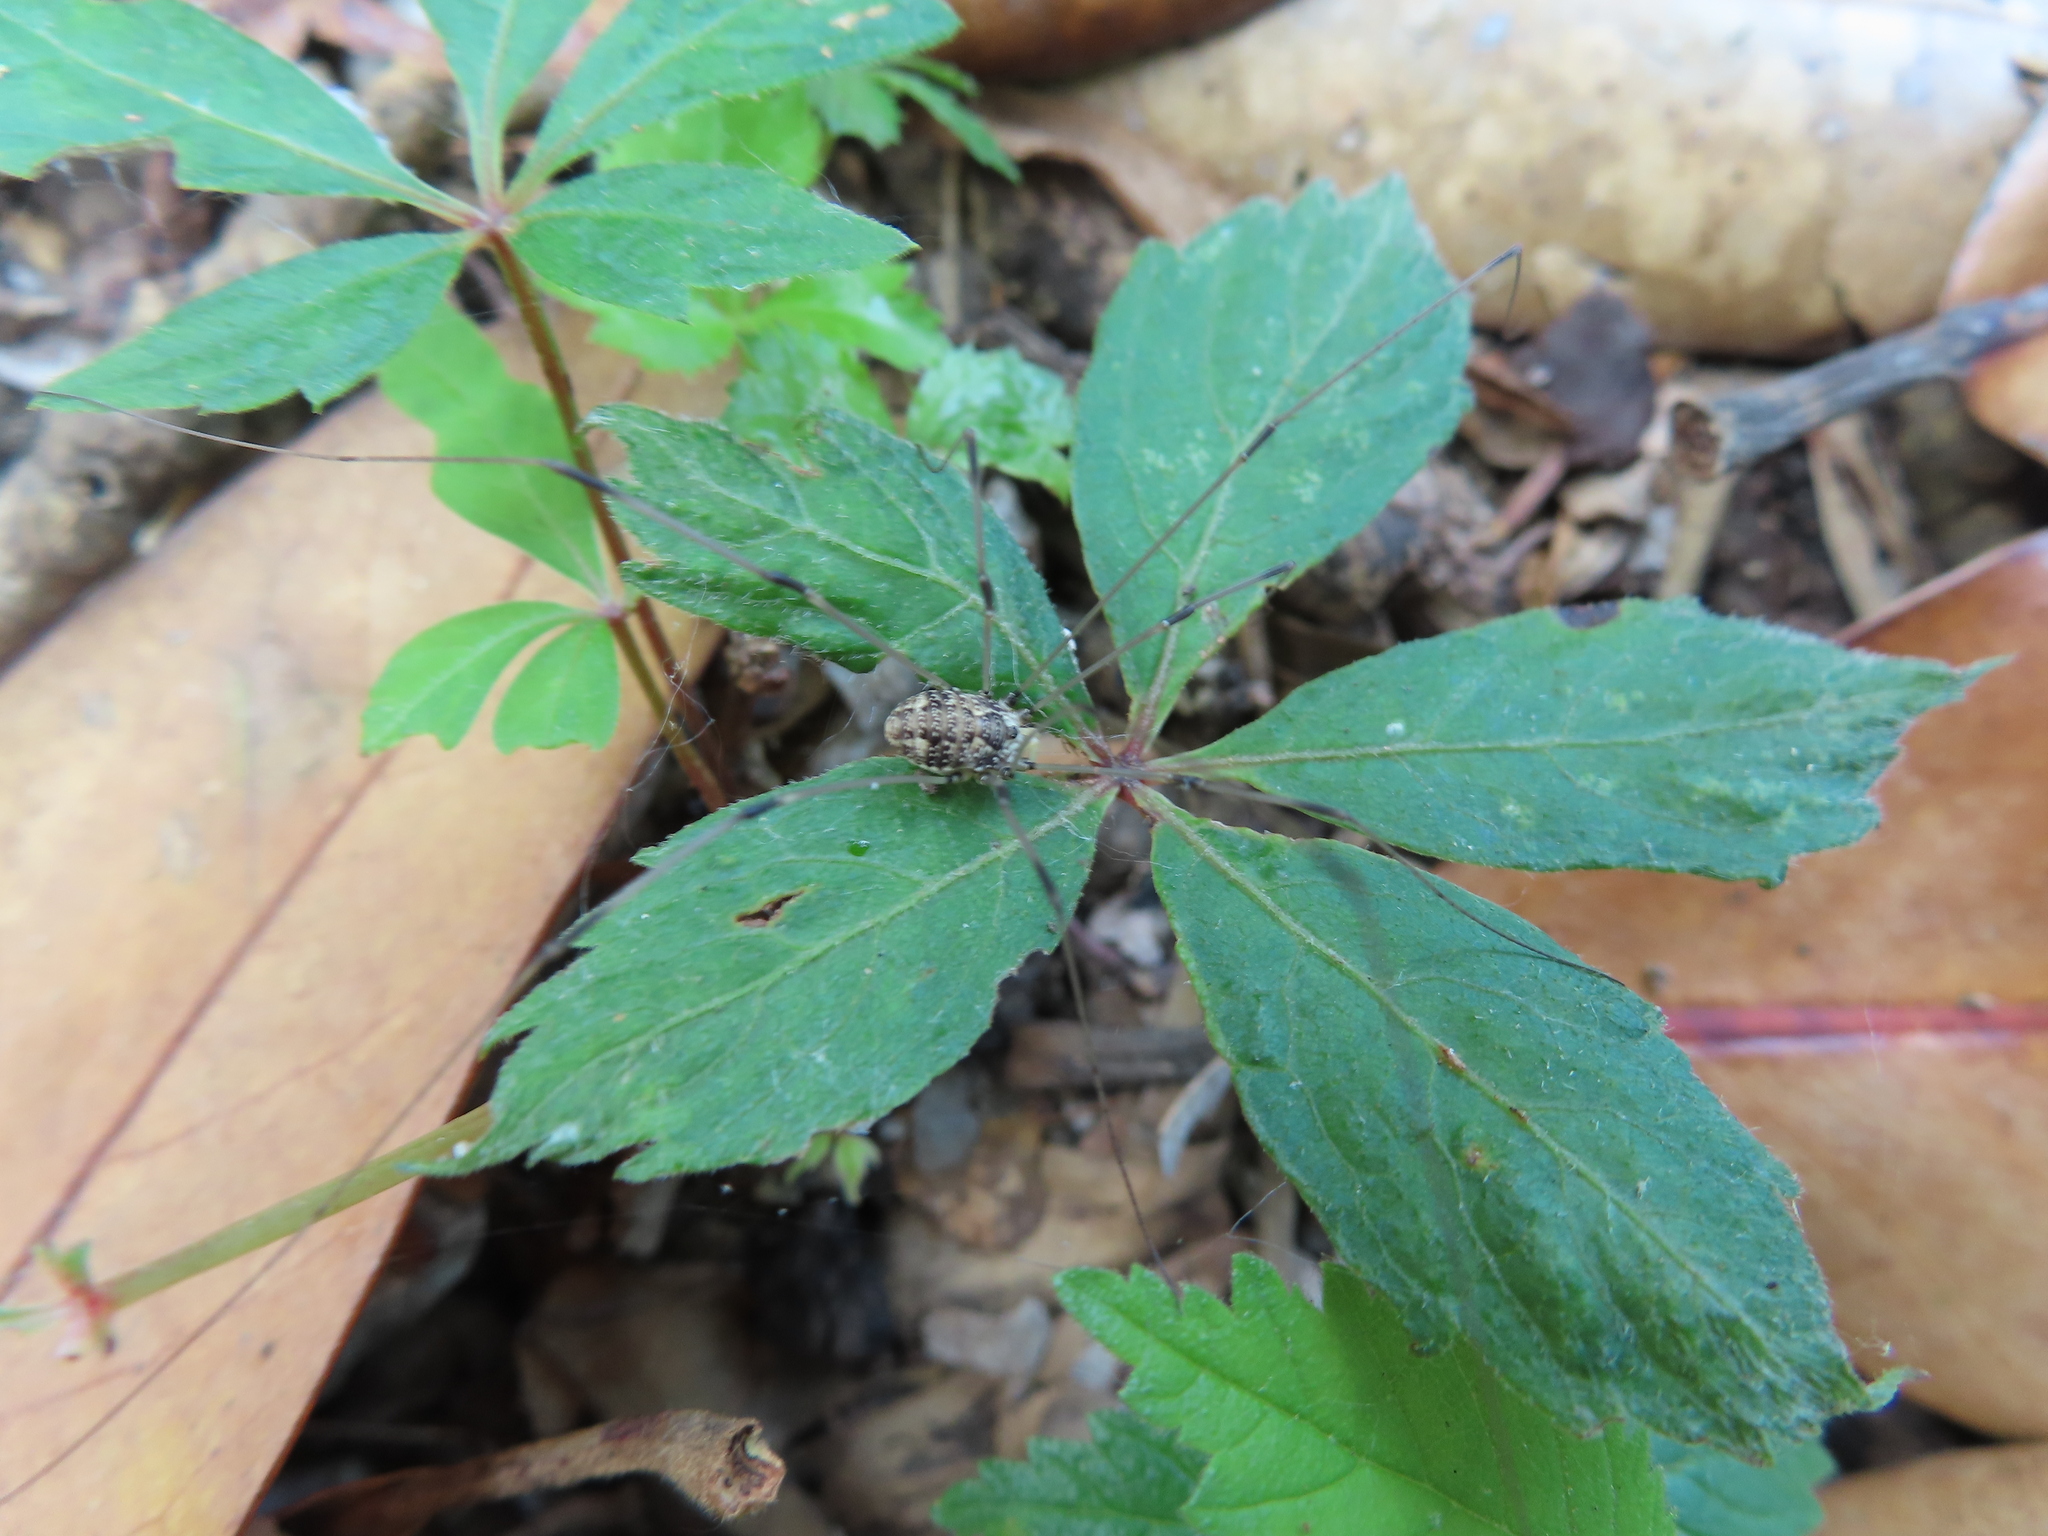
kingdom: Plantae
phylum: Tracheophyta
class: Magnoliopsida
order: Vitales
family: Vitaceae
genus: Parthenocissus
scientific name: Parthenocissus quinquefolia
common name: Virginia-creeper
